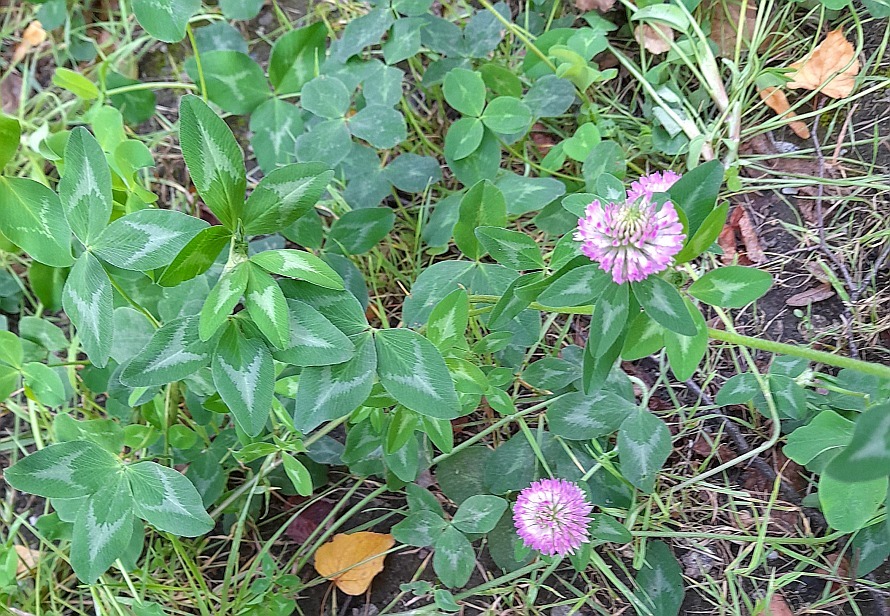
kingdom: Plantae
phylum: Tracheophyta
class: Magnoliopsida
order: Fabales
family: Fabaceae
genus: Trifolium
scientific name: Trifolium pratense
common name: Red clover
